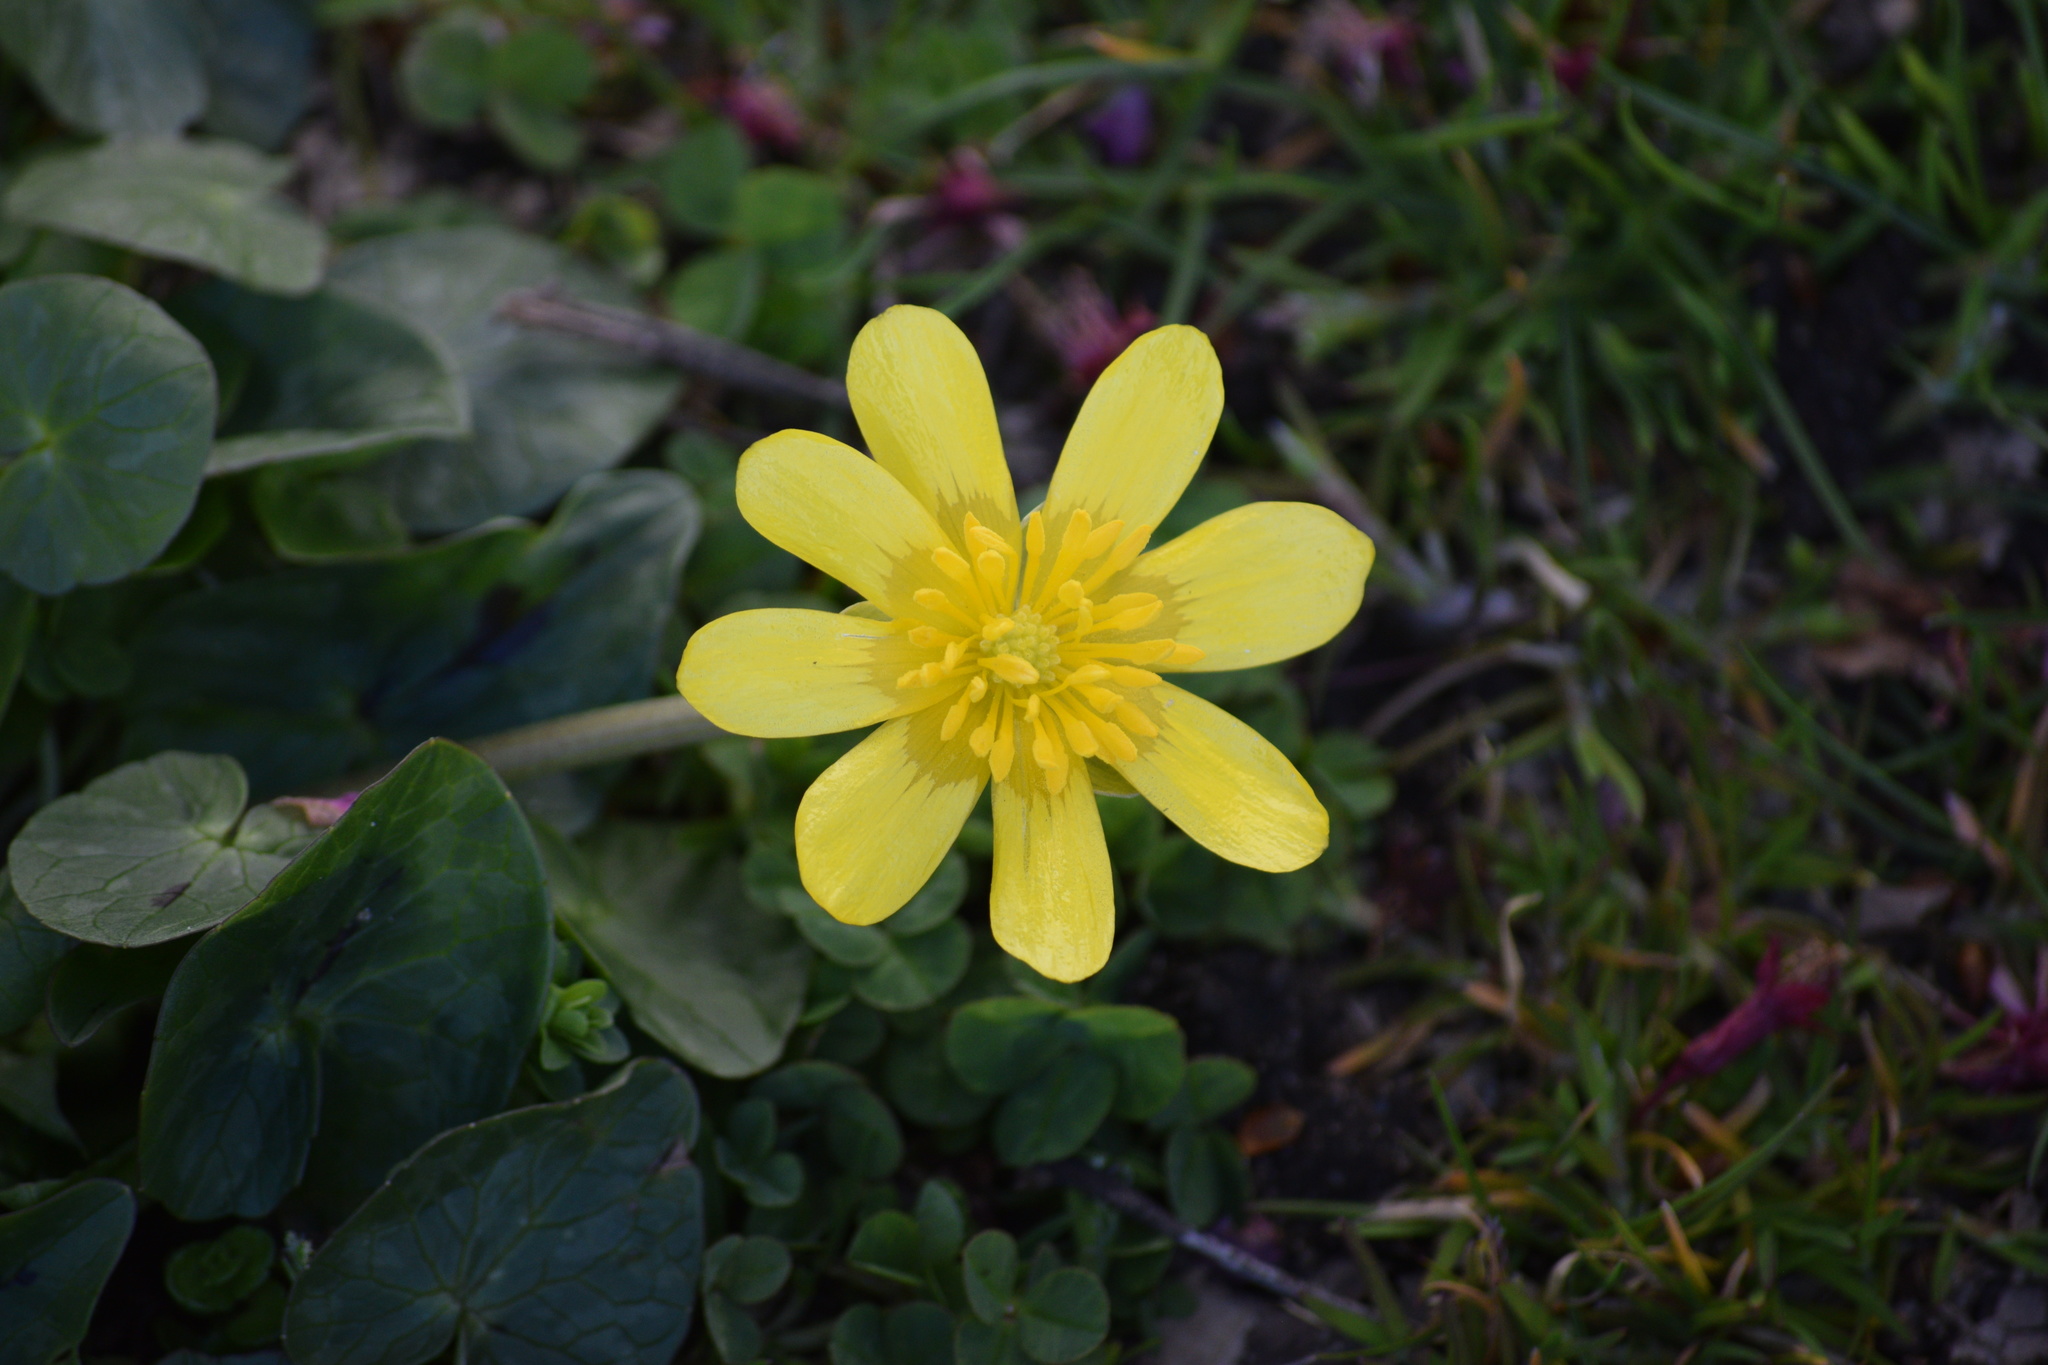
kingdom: Plantae
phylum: Tracheophyta
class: Magnoliopsida
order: Ranunculales
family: Ranunculaceae
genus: Ficaria
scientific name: Ficaria verna
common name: Lesser celandine
